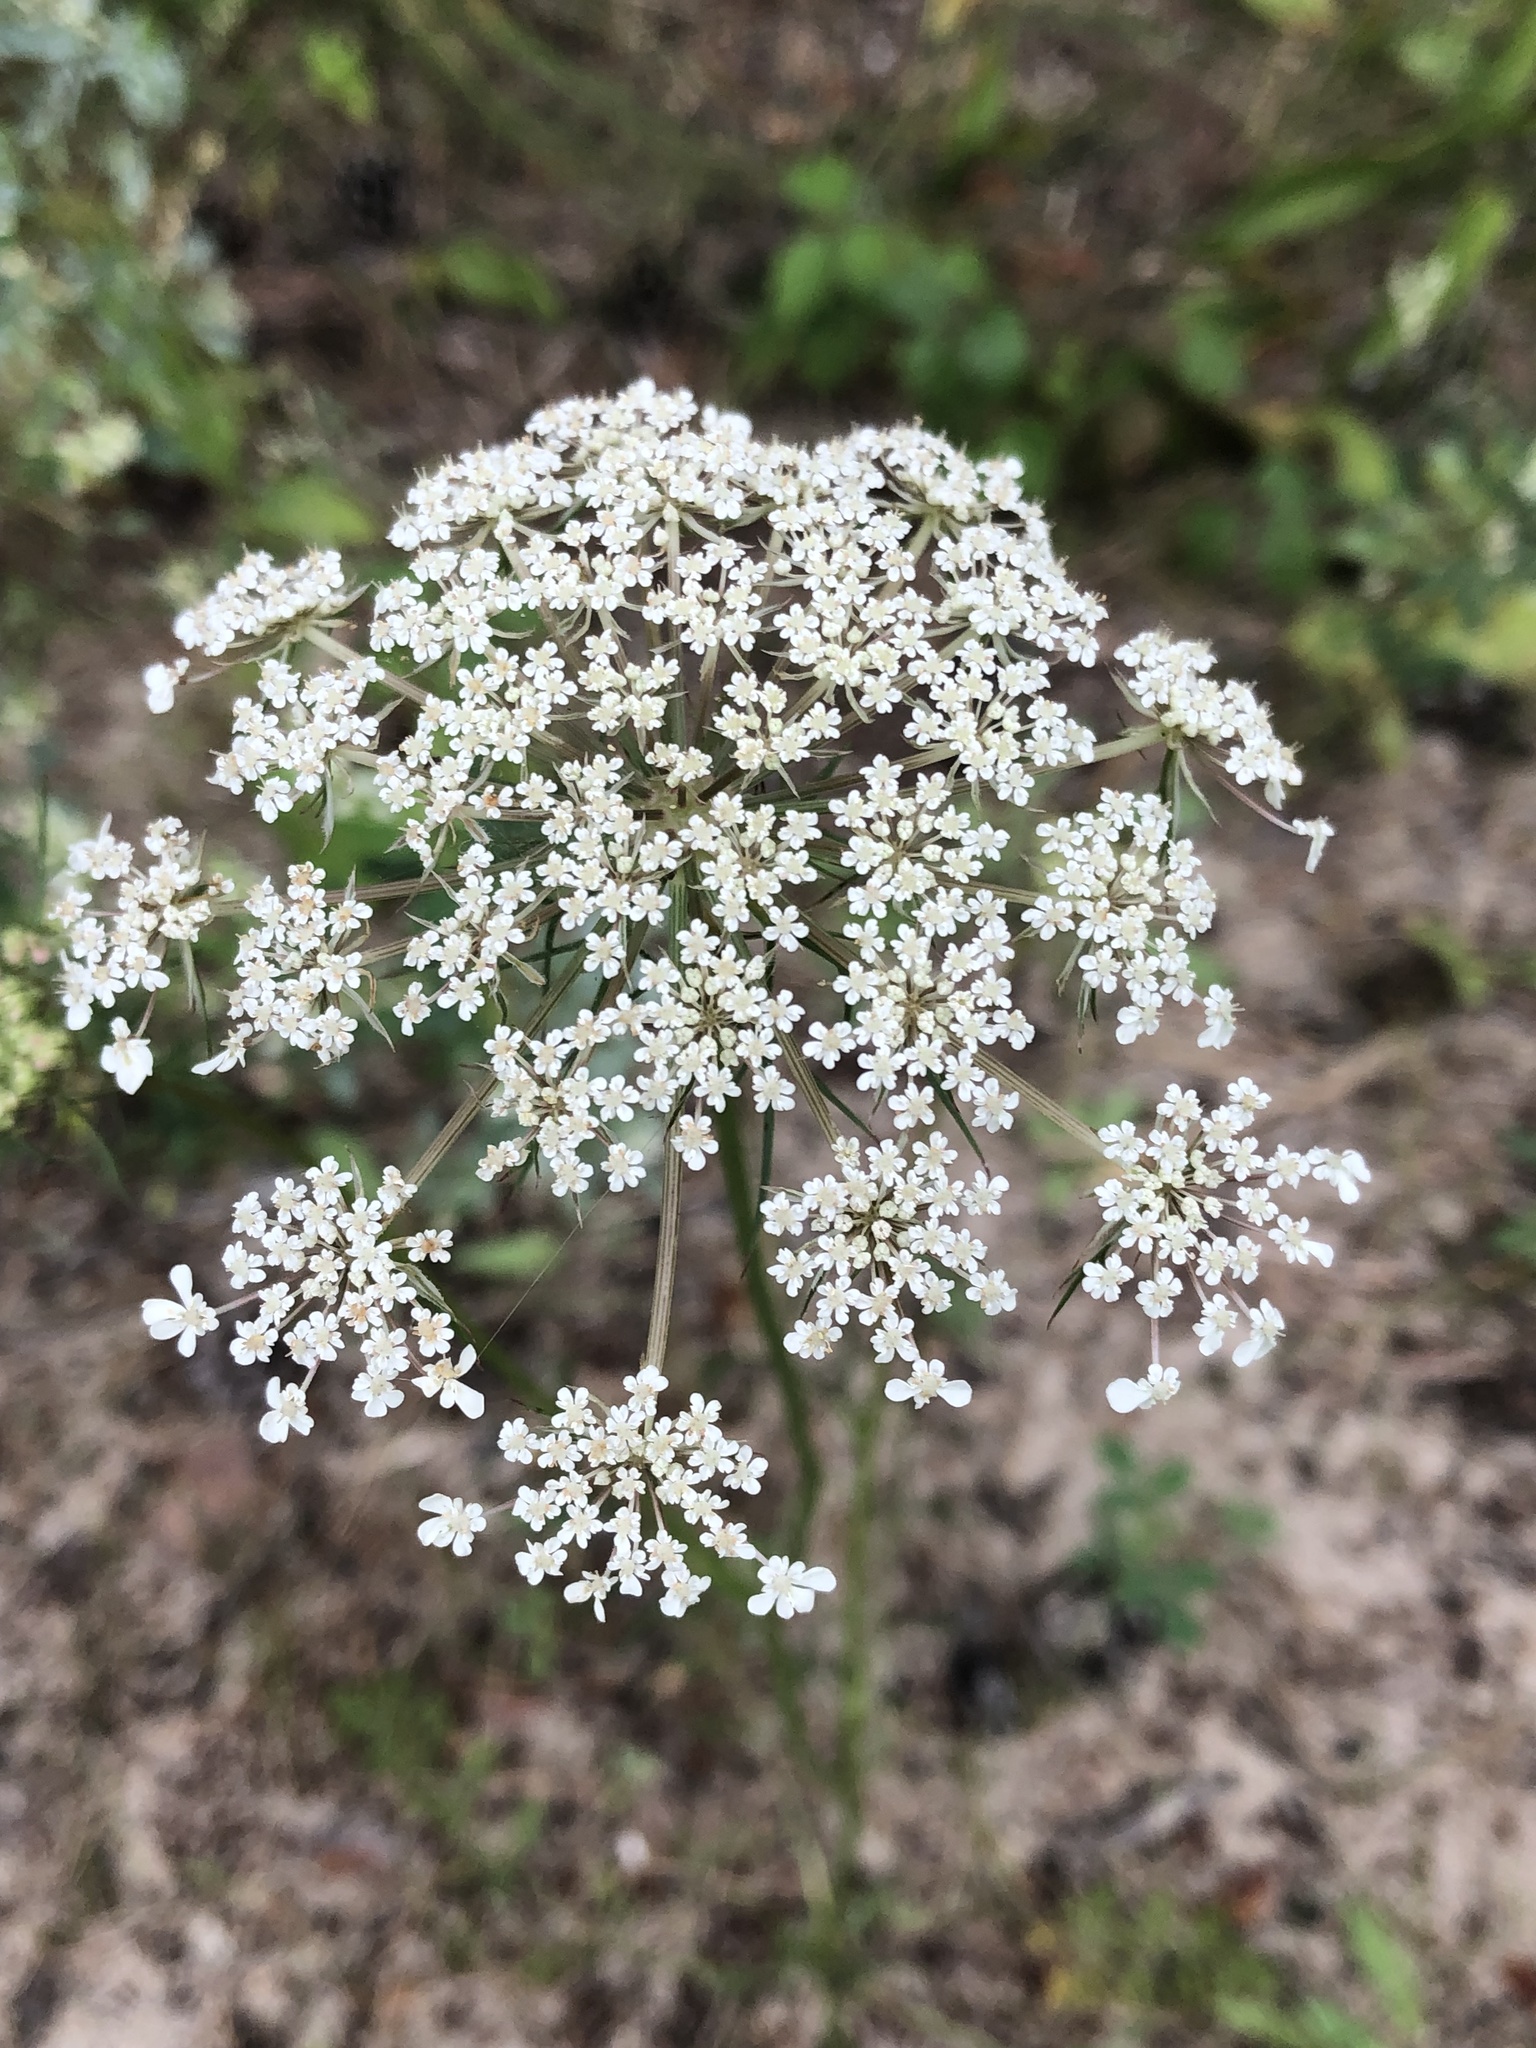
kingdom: Plantae
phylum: Tracheophyta
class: Magnoliopsida
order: Apiales
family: Apiaceae
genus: Daucus
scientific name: Daucus carota
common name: Wild carrot
